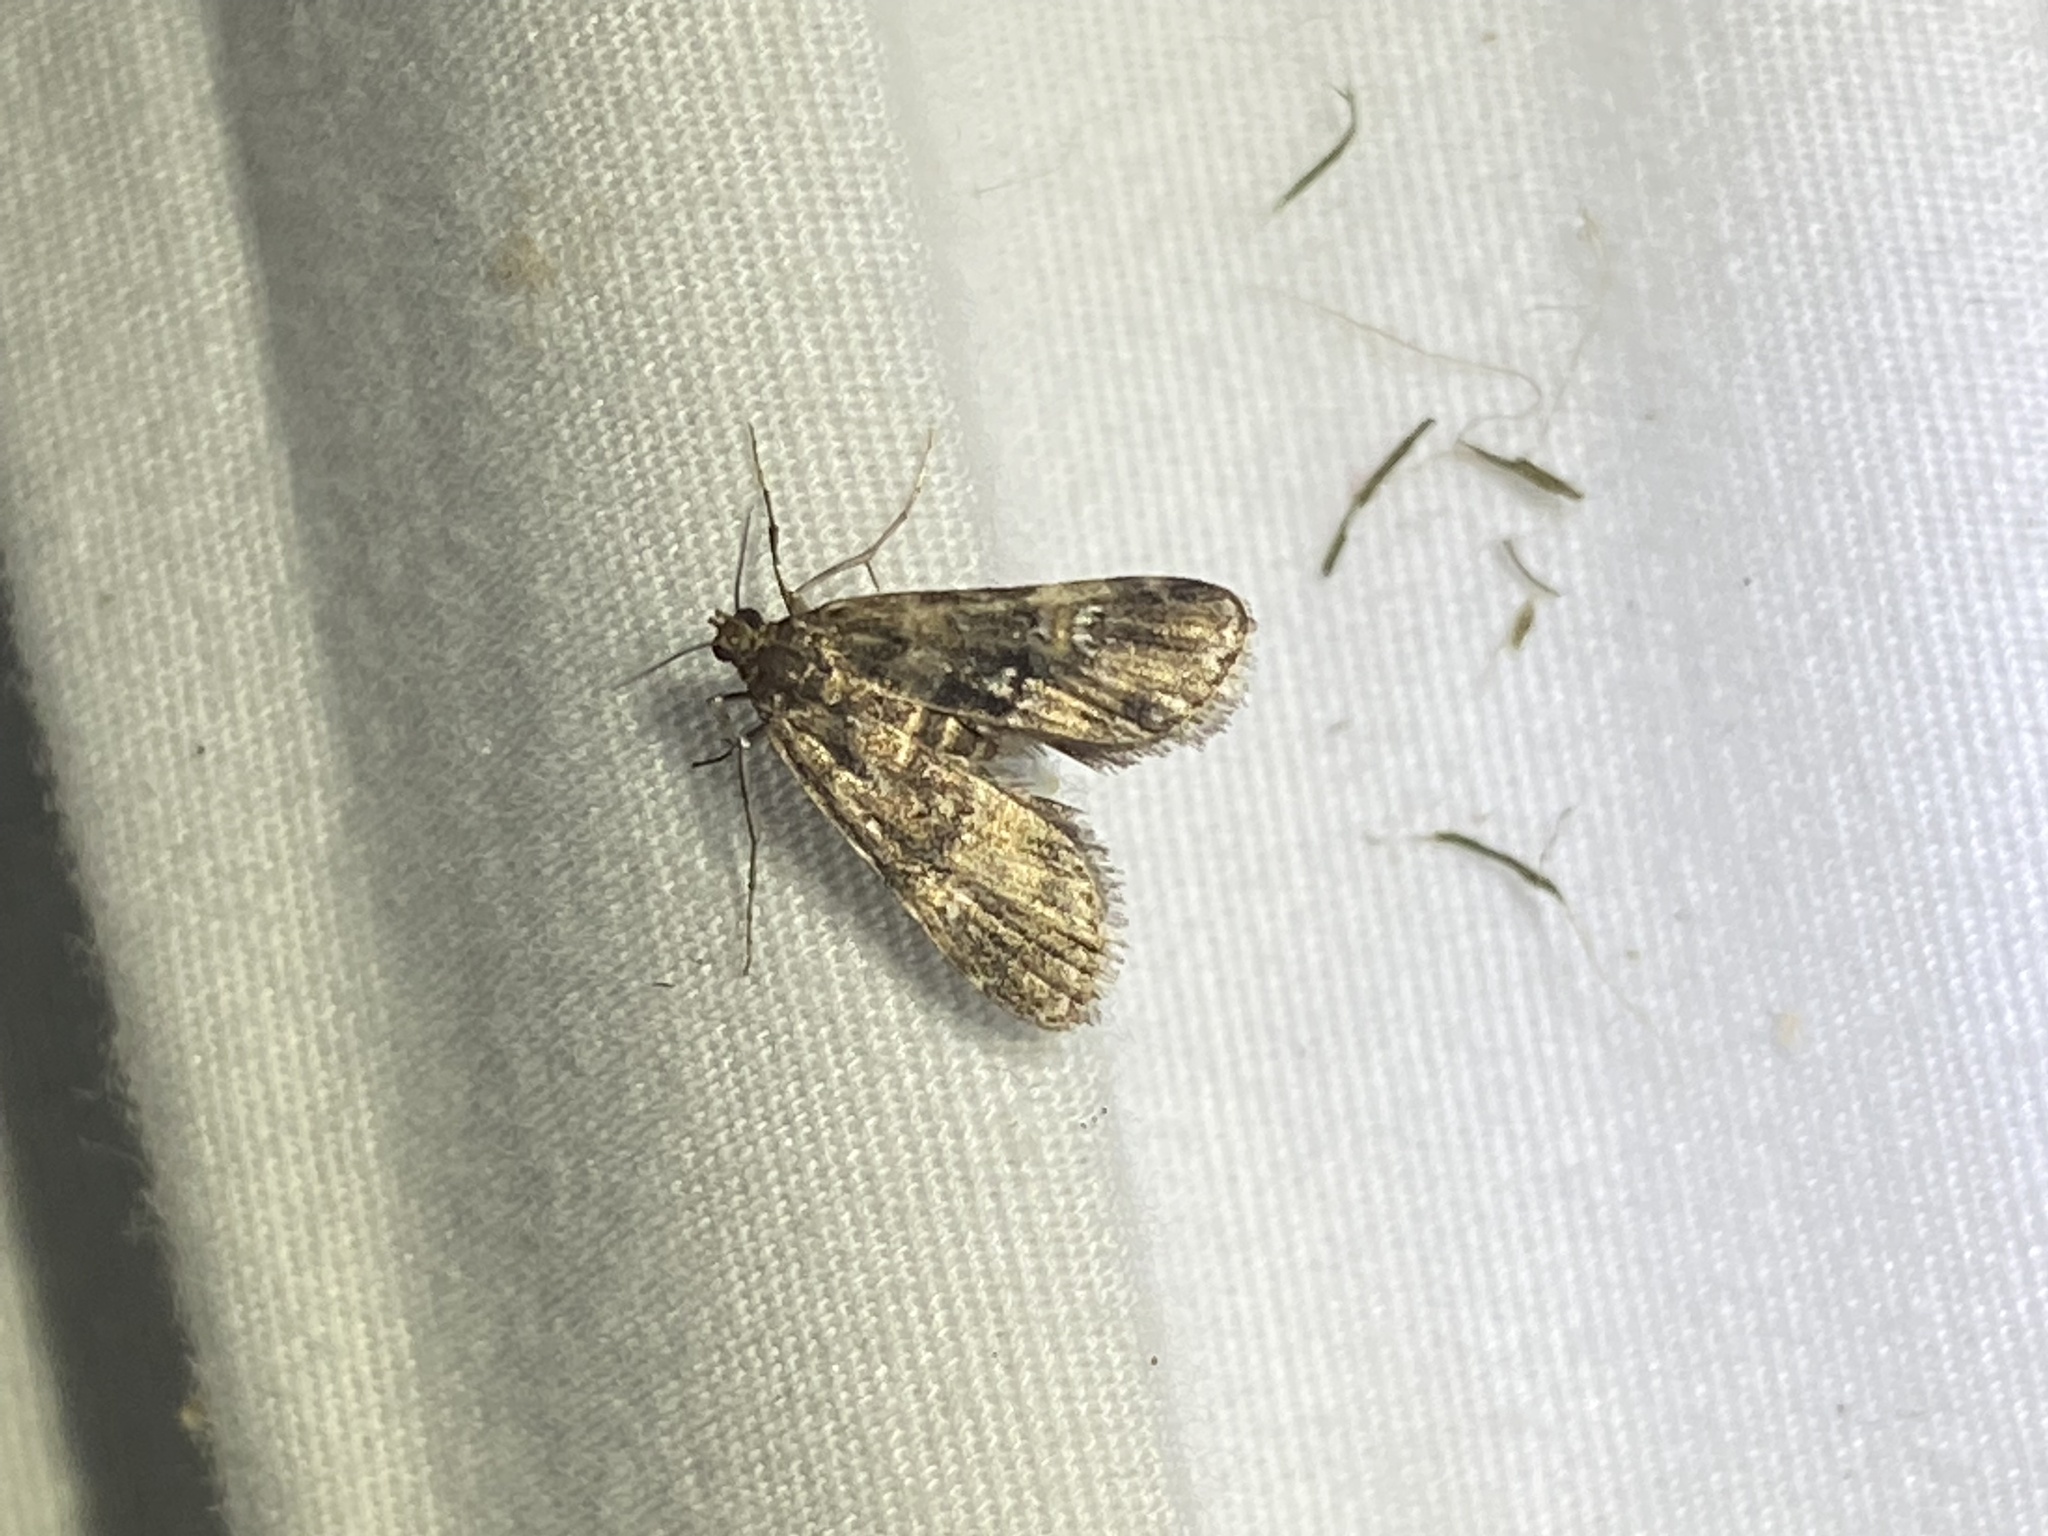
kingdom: Animalia
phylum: Arthropoda
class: Insecta
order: Lepidoptera
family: Crambidae
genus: Elophila
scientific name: Elophila obliteralis
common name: Waterlily leafcutter moth
